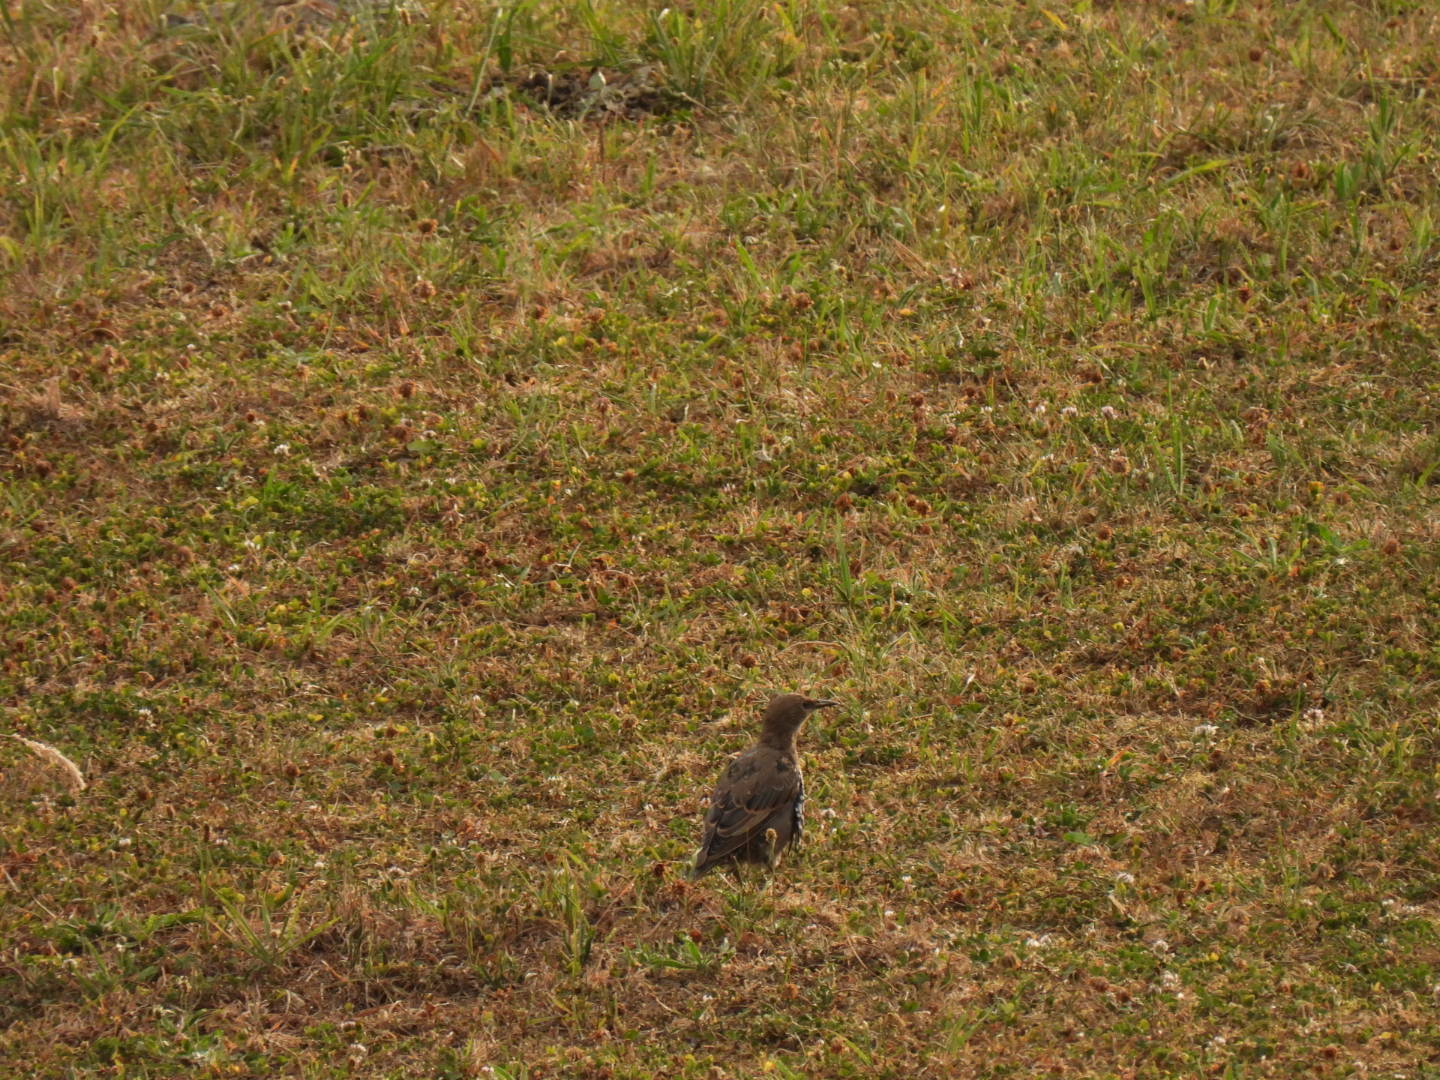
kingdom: Animalia
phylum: Chordata
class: Aves
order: Passeriformes
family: Sturnidae
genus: Sturnus
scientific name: Sturnus vulgaris
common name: Common starling
